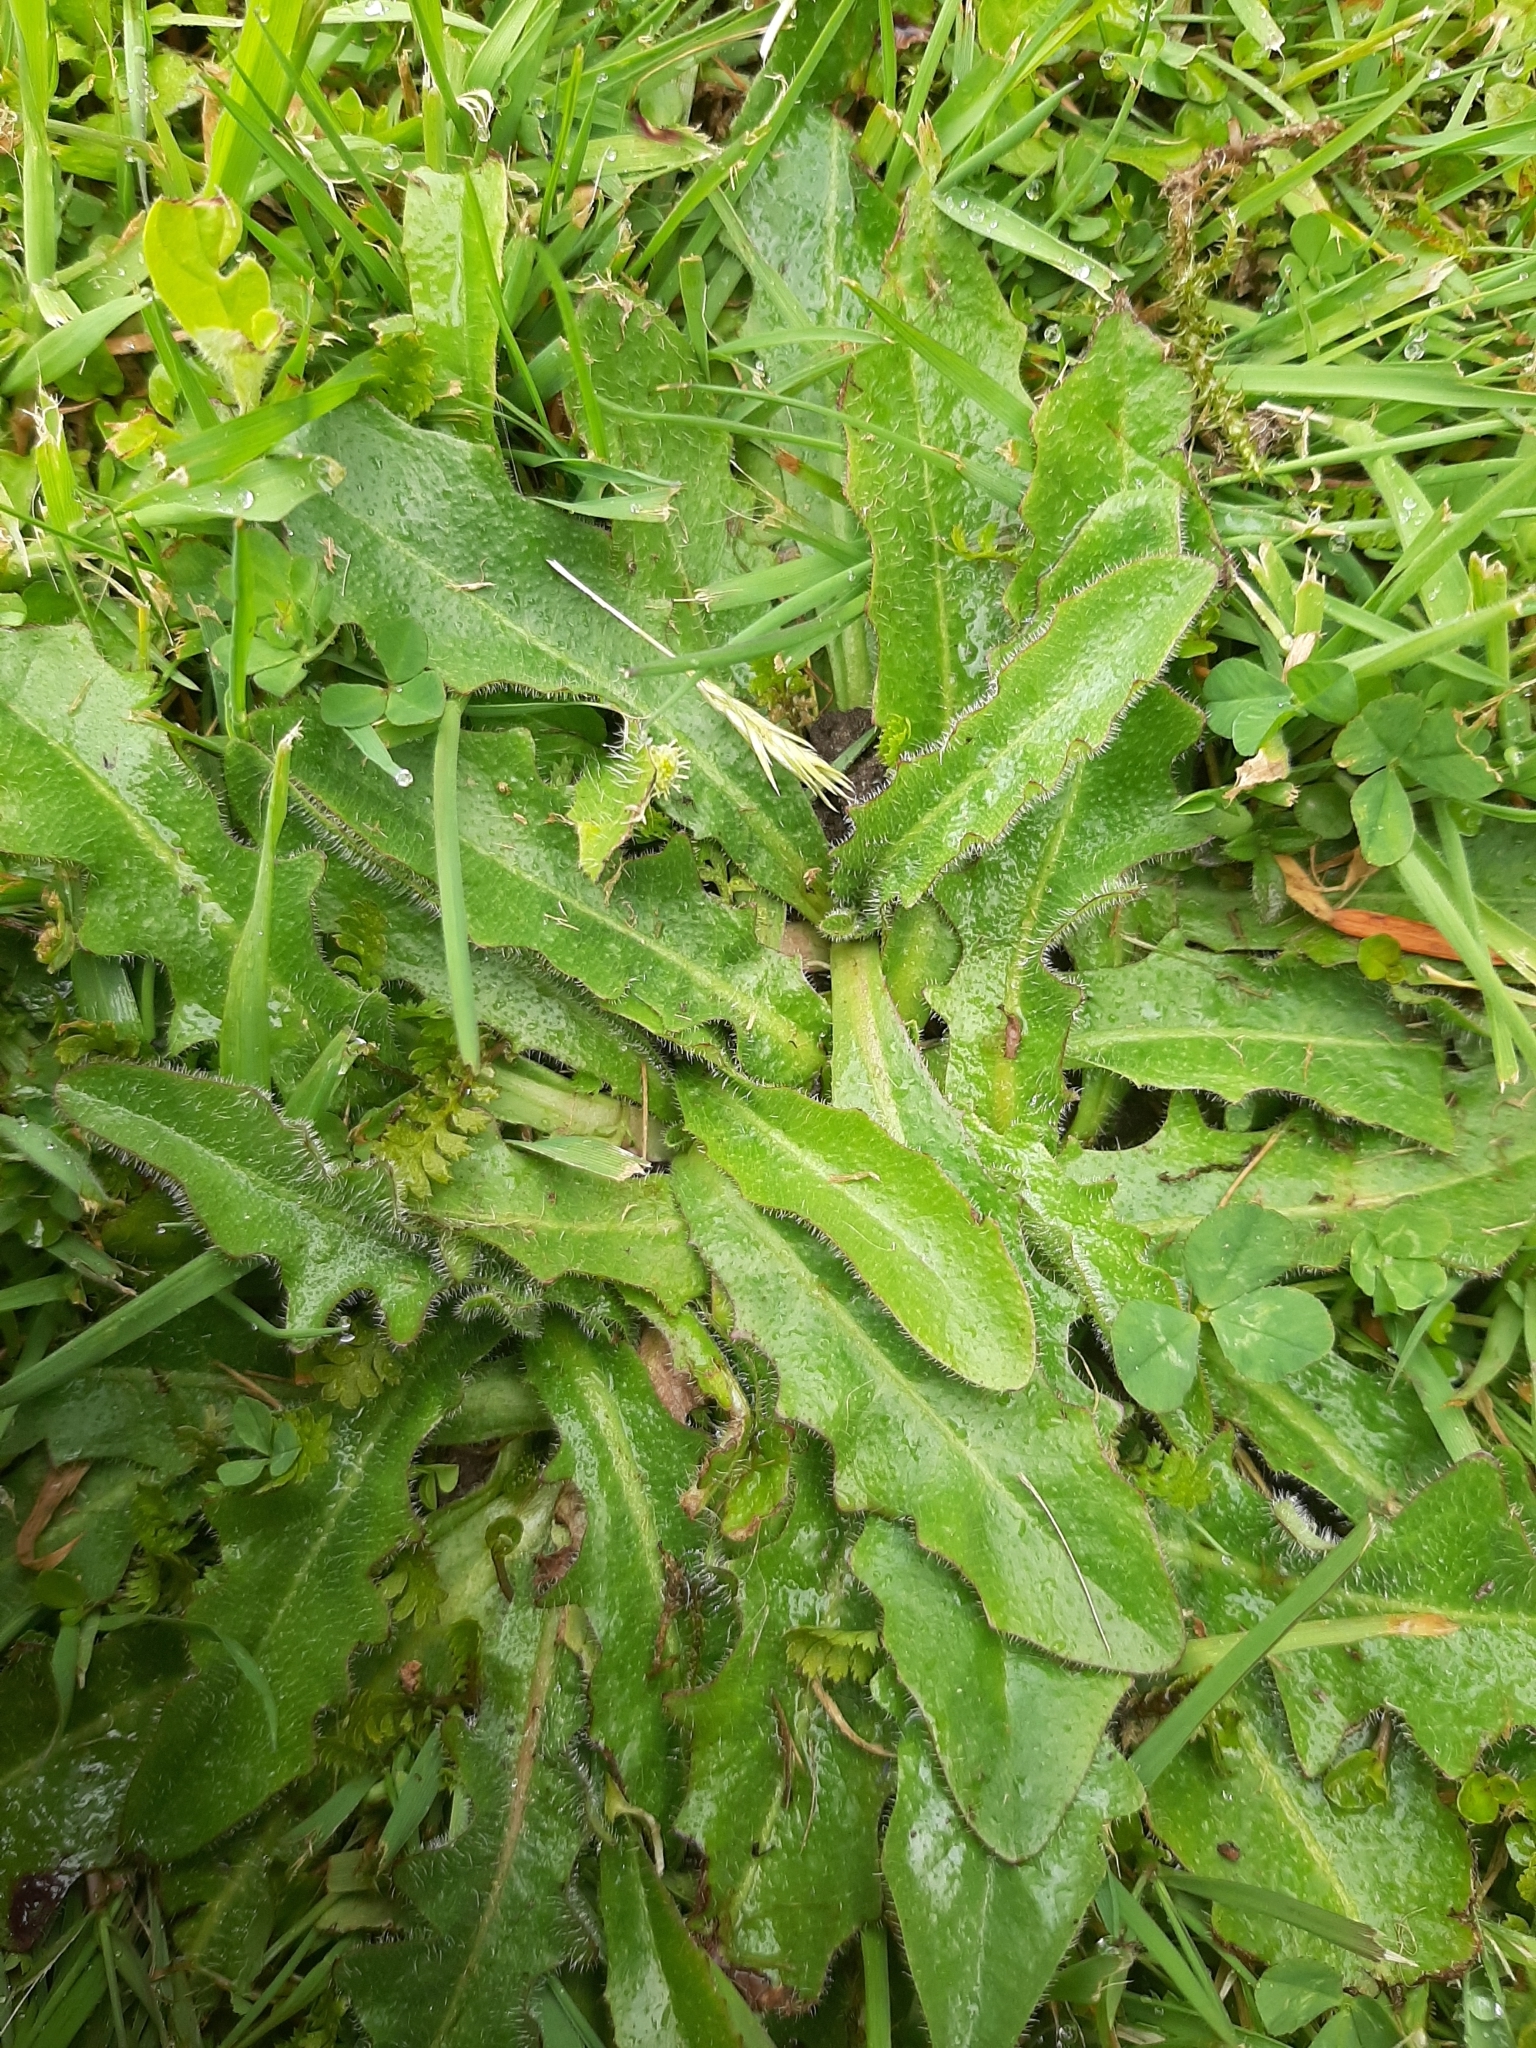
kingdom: Plantae
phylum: Tracheophyta
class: Magnoliopsida
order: Asterales
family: Asteraceae
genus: Hypochaeris
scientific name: Hypochaeris radicata
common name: Flatweed
